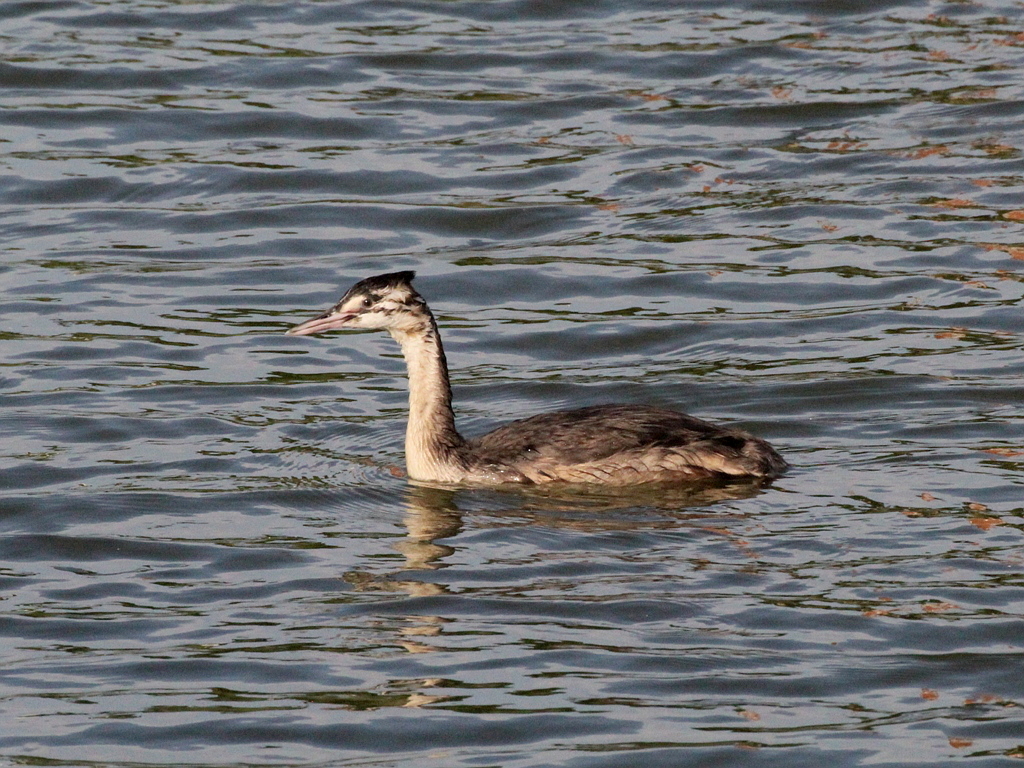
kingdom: Animalia
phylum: Chordata
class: Aves
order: Podicipediformes
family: Podicipedidae
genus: Podiceps
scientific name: Podiceps cristatus
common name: Great crested grebe
